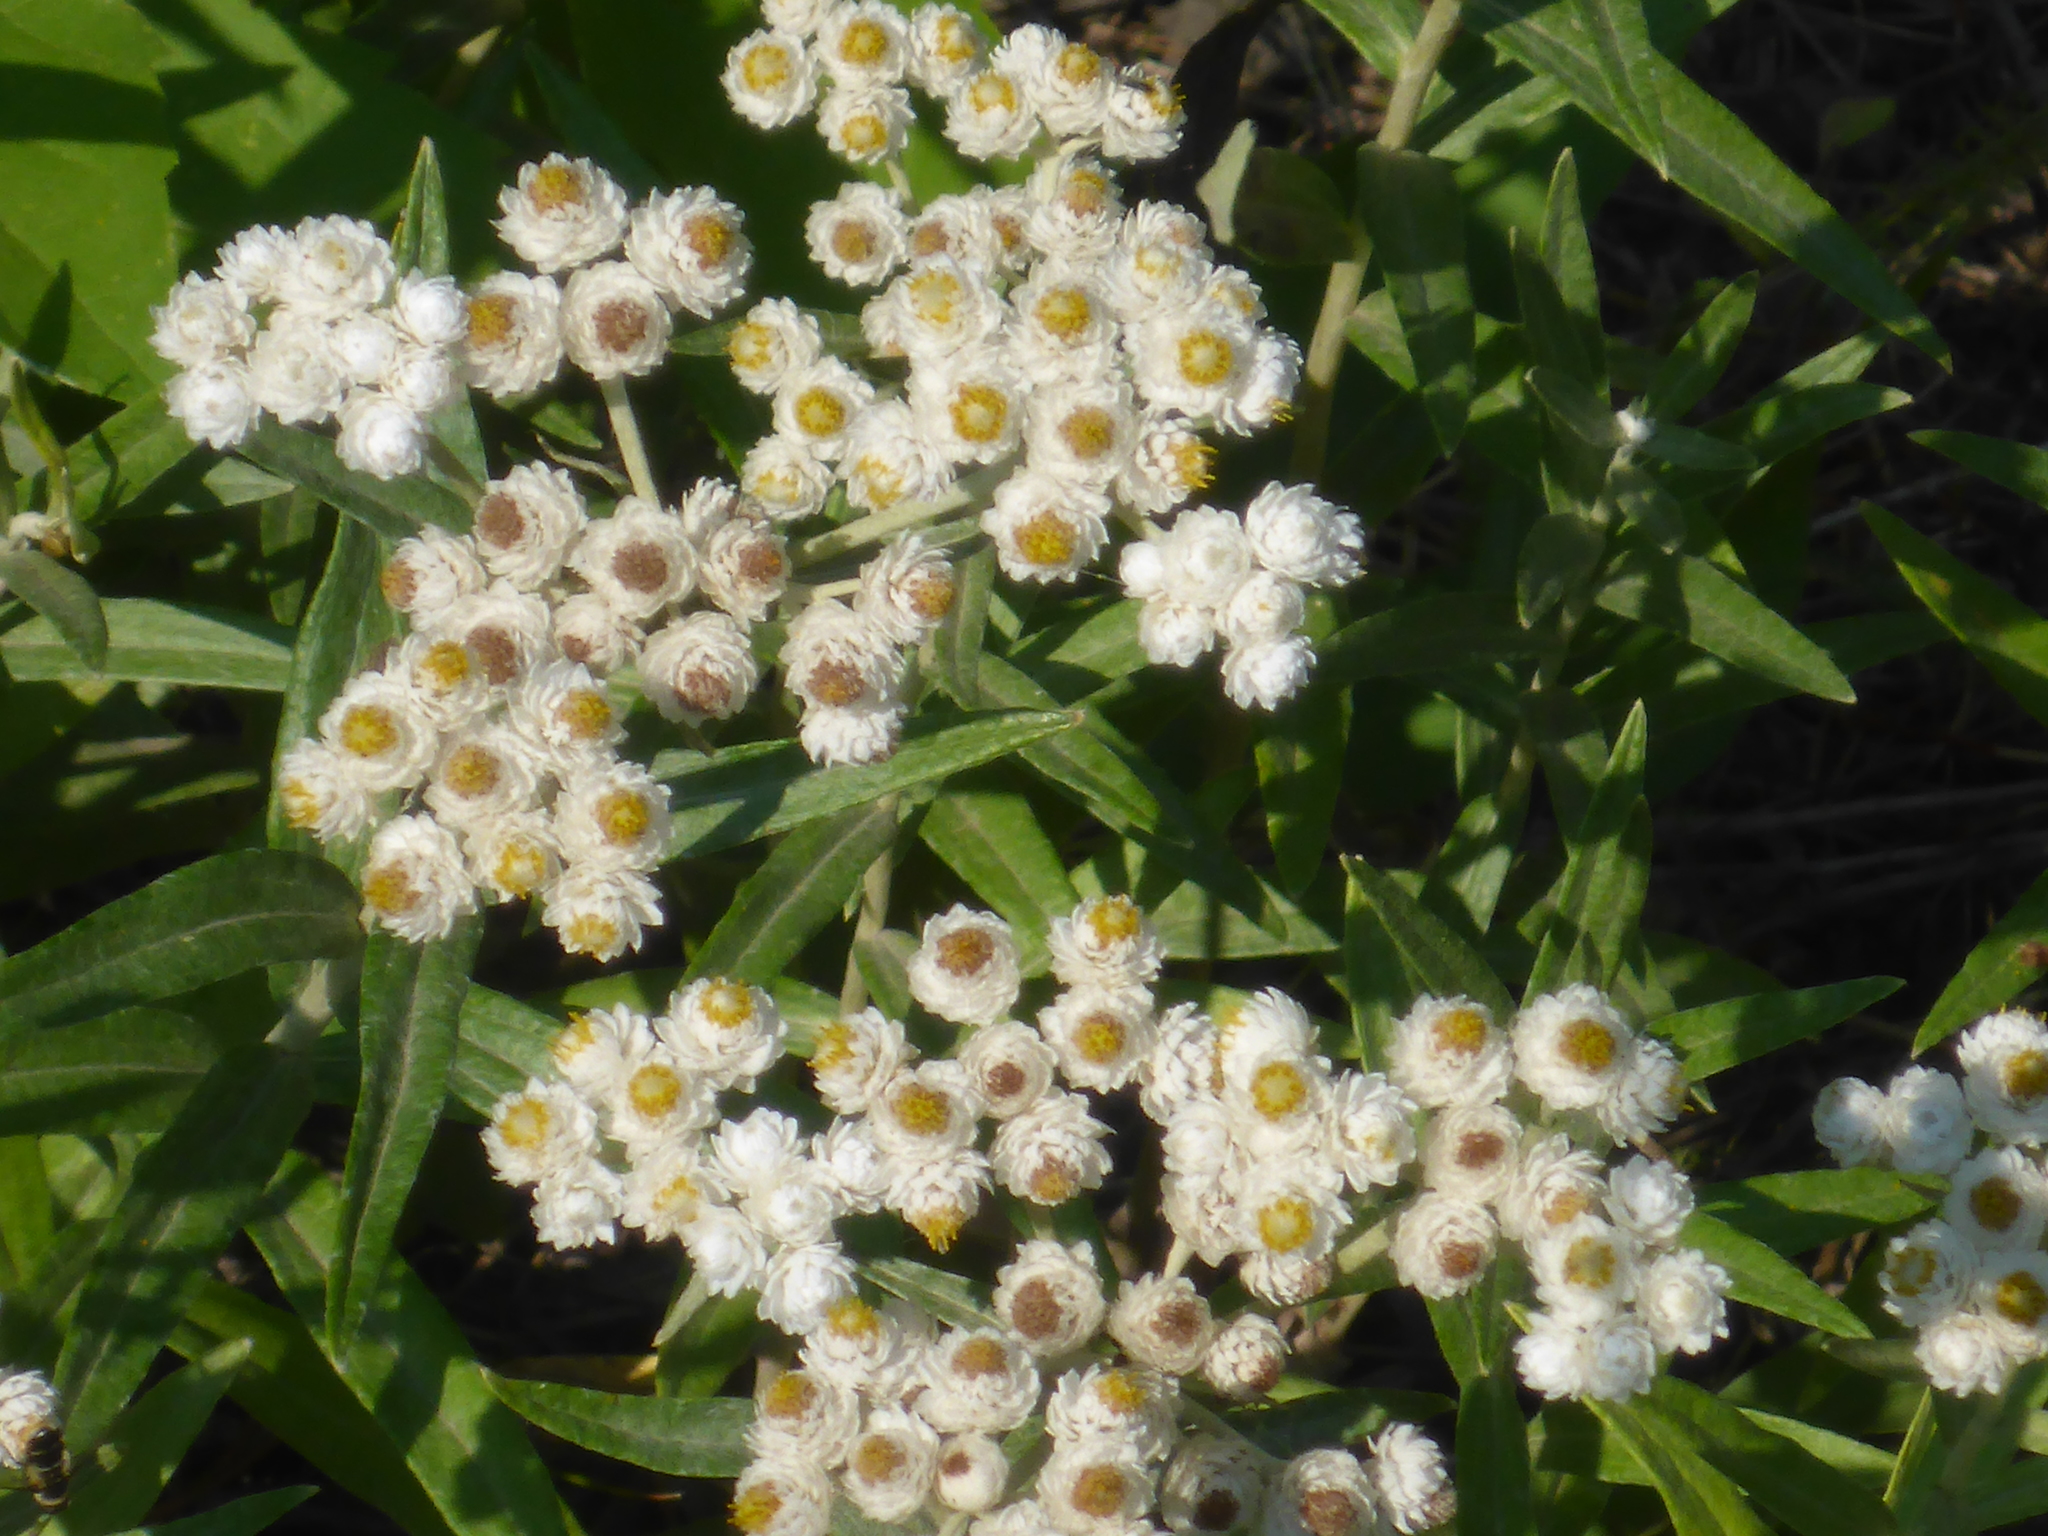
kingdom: Plantae
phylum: Tracheophyta
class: Magnoliopsida
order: Asterales
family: Asteraceae
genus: Anaphalis
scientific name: Anaphalis margaritacea
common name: Pearly everlasting
